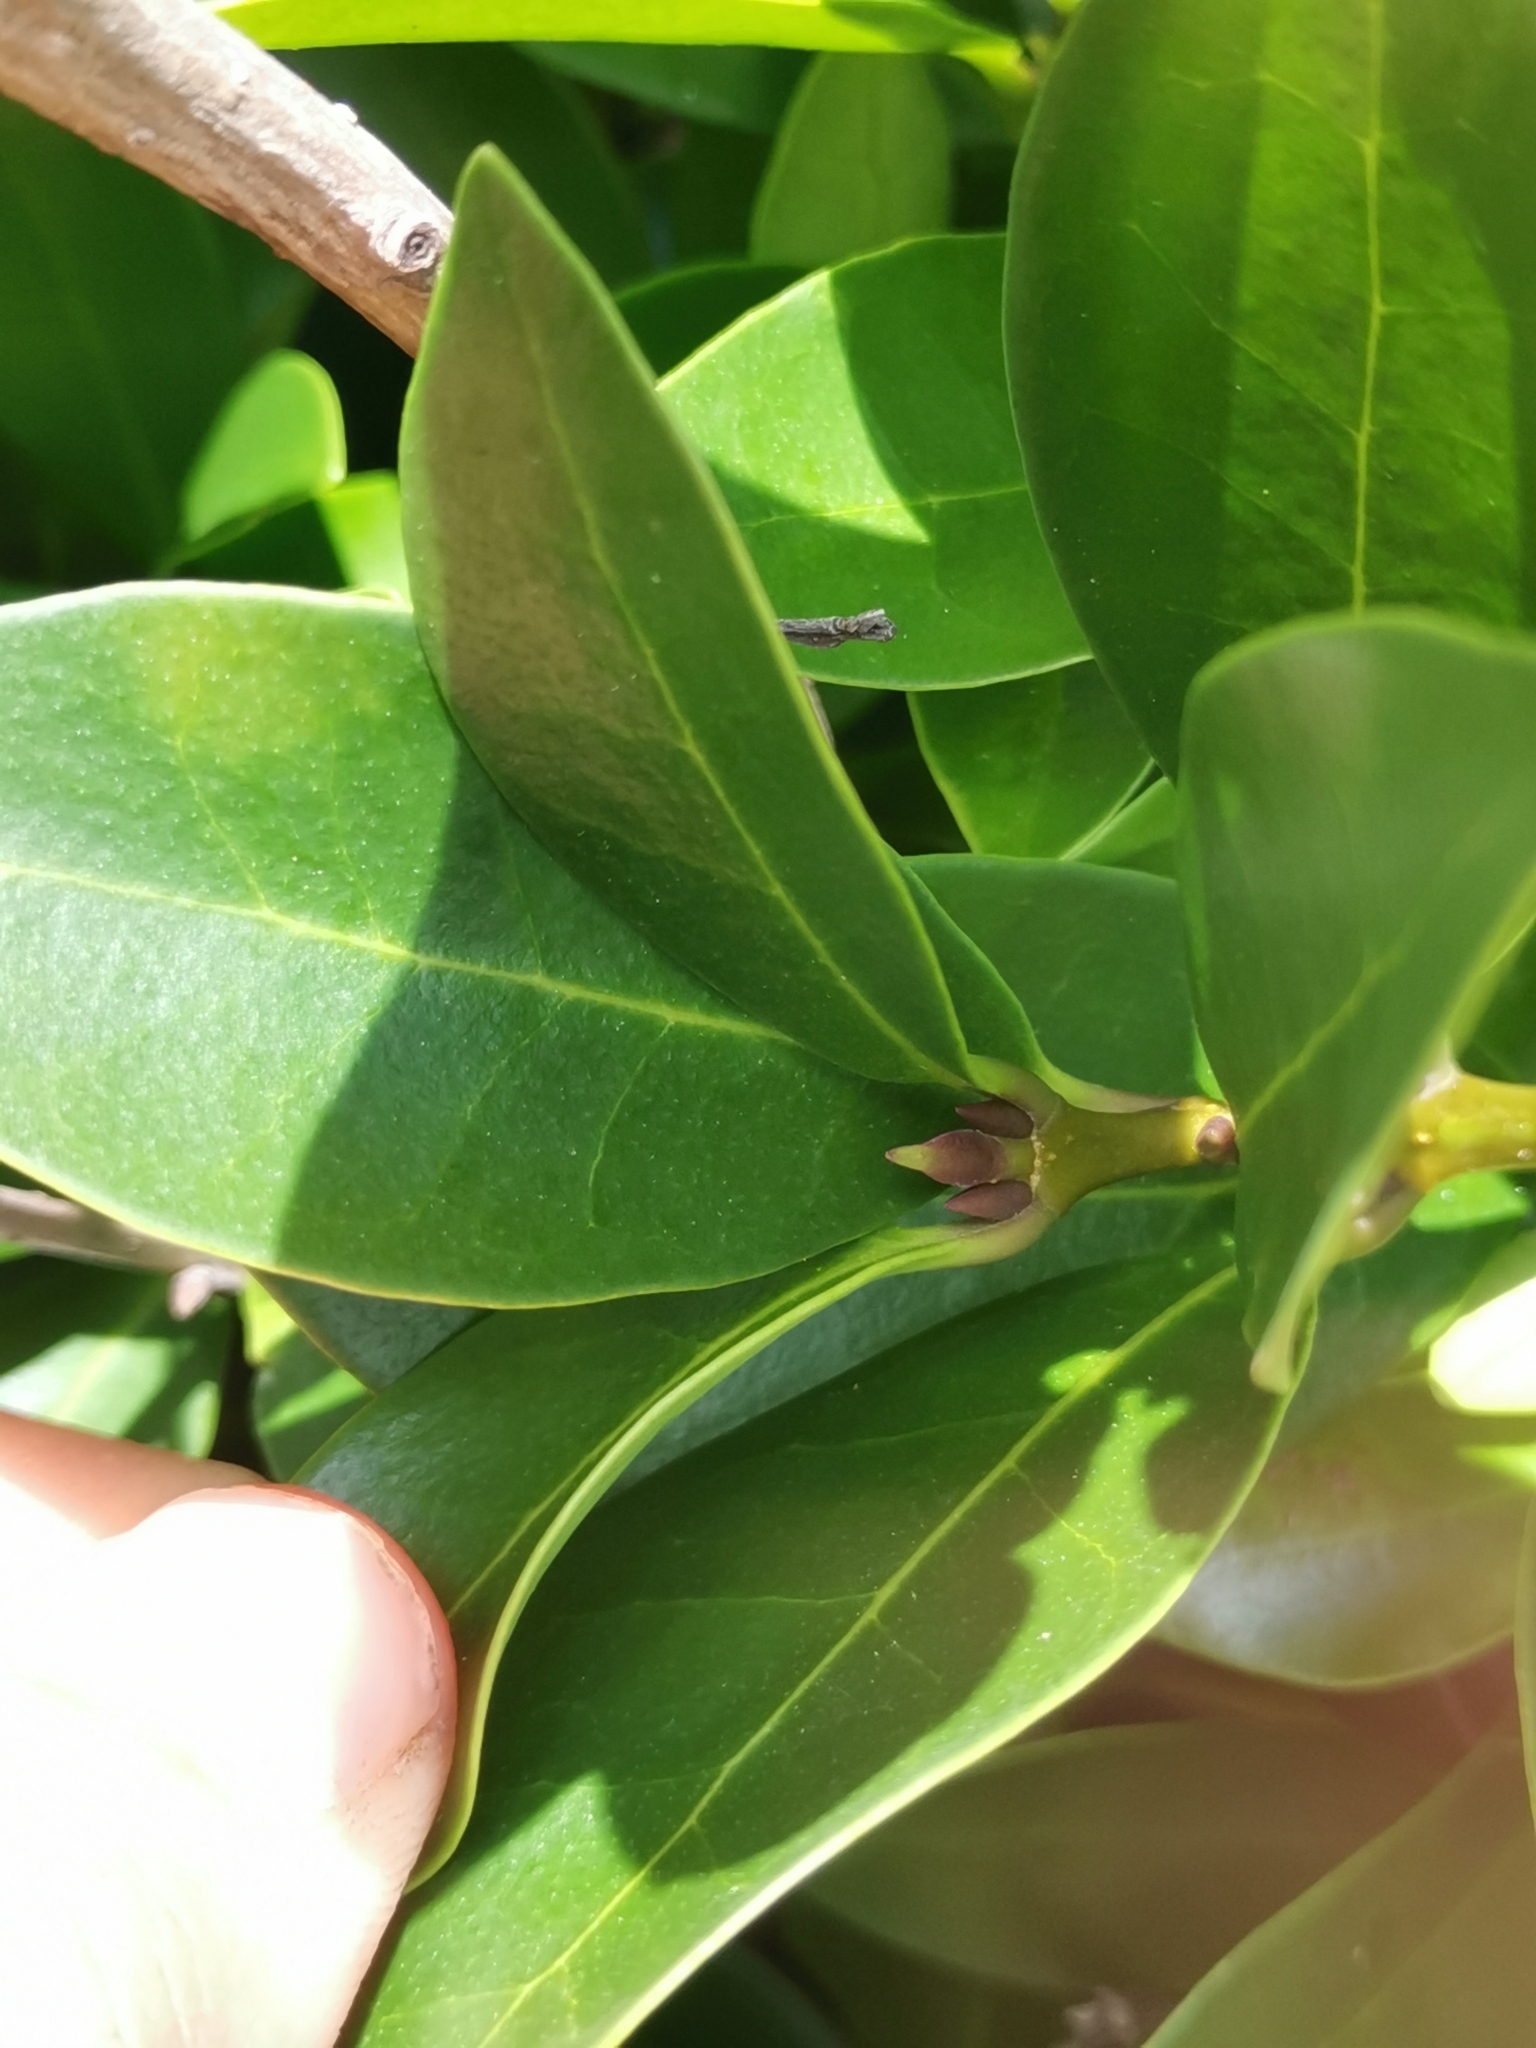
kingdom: Plantae
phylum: Tracheophyta
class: Magnoliopsida
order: Lamiales
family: Oleaceae
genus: Picconia
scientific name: Picconia azorica
